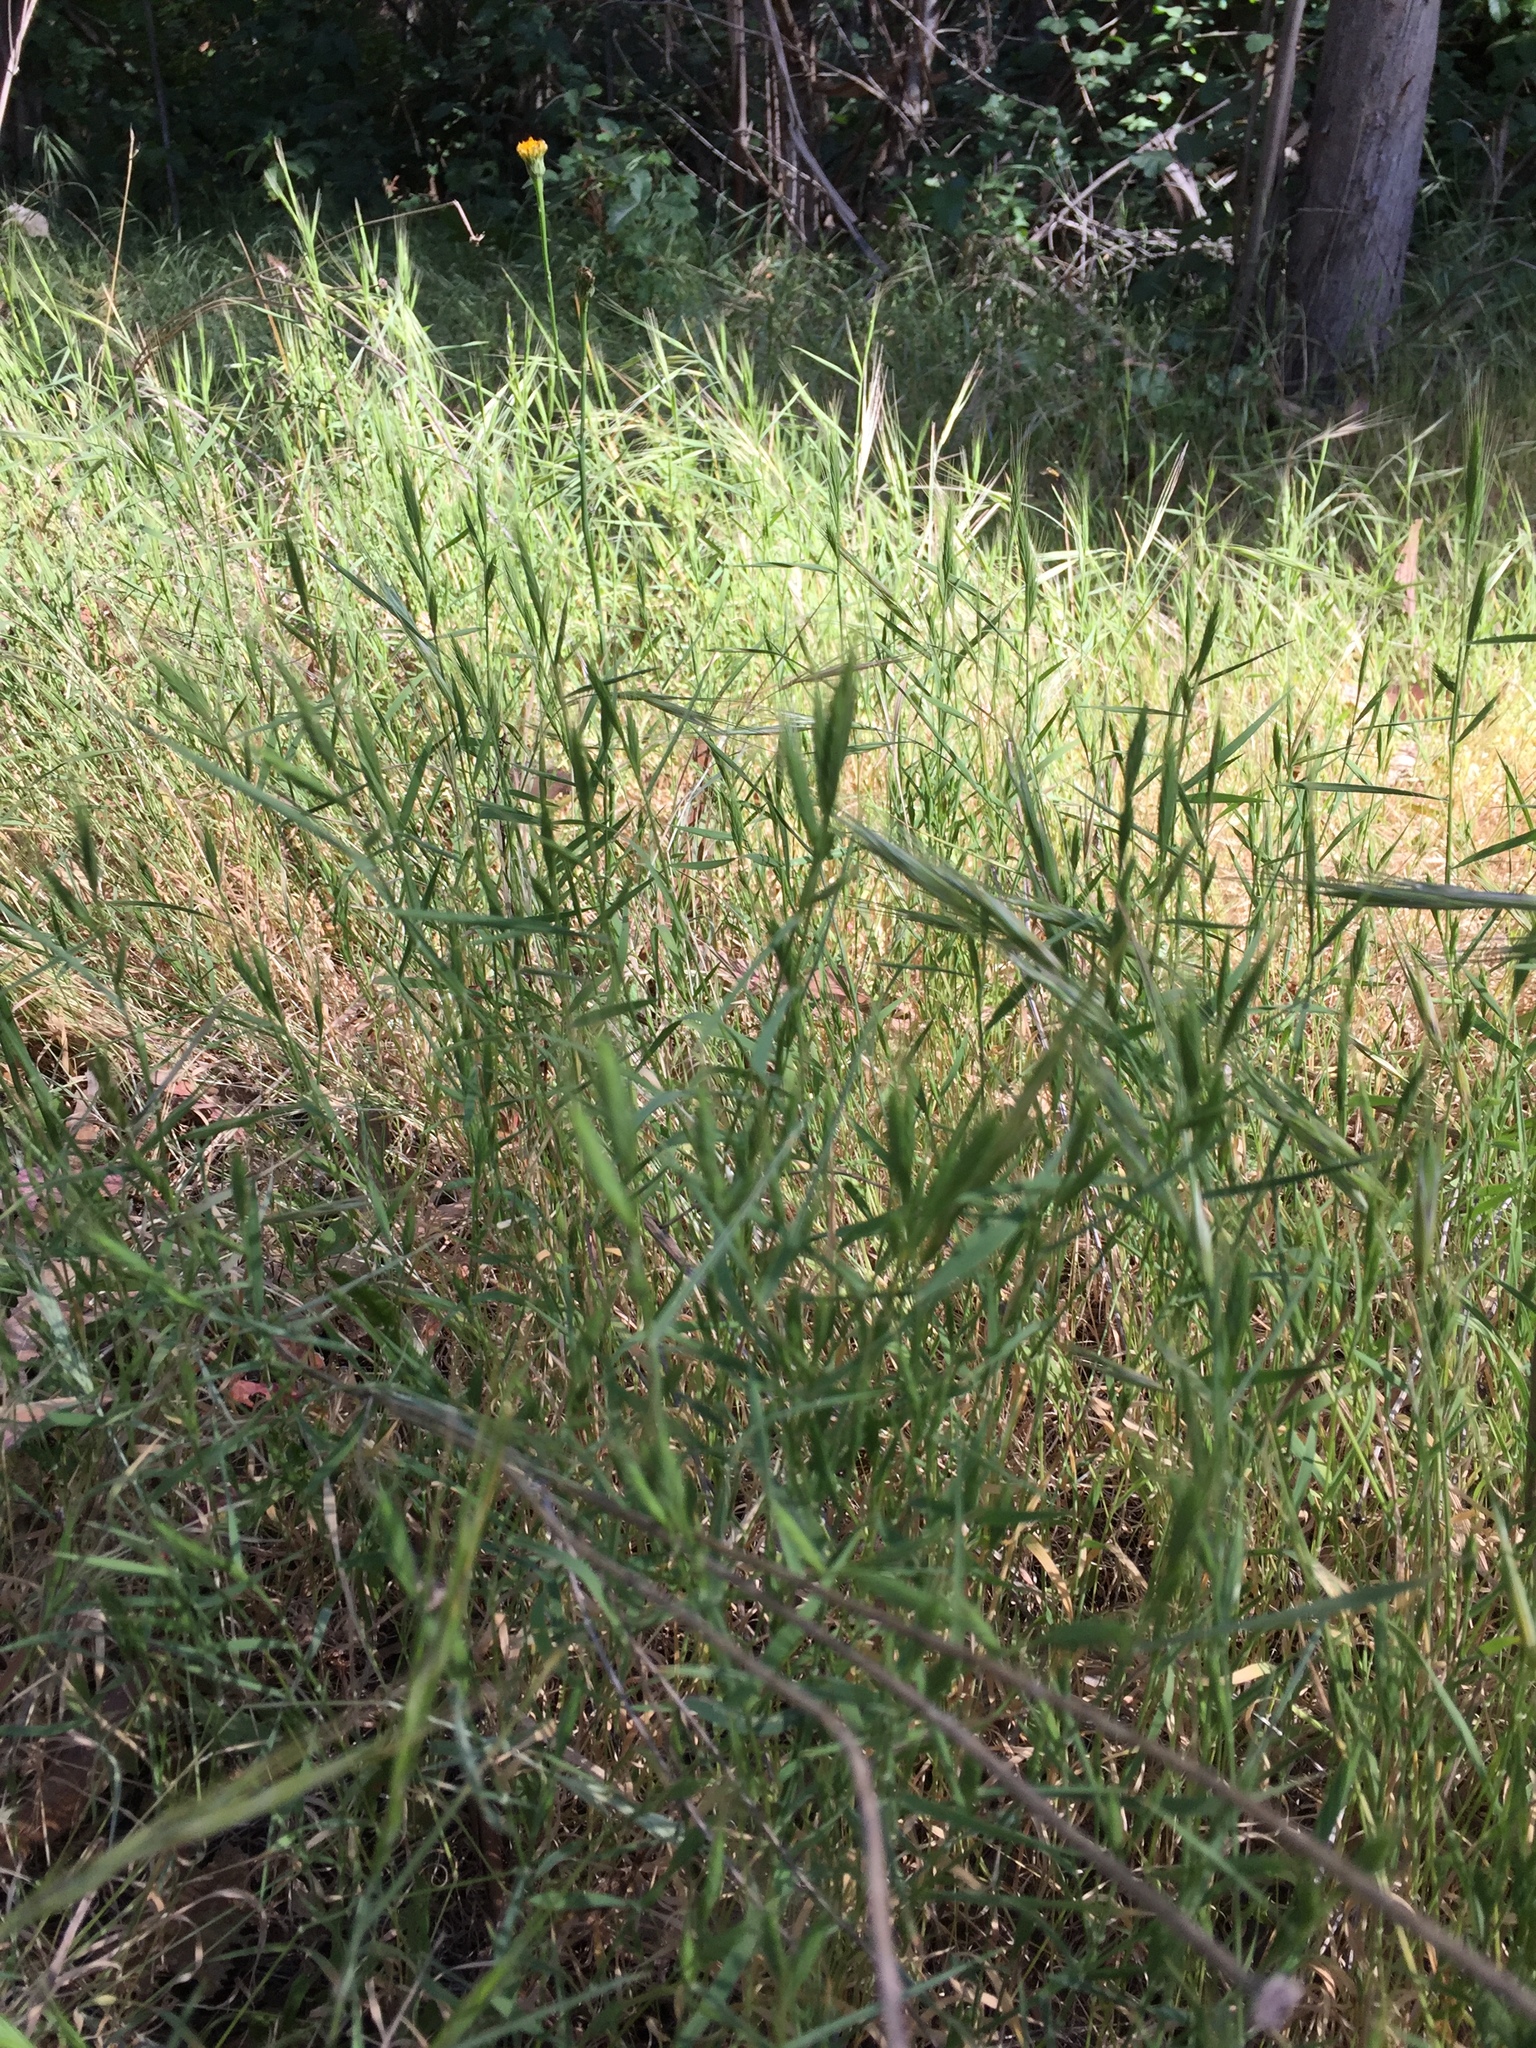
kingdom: Plantae
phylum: Tracheophyta
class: Liliopsida
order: Poales
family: Poaceae
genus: Brachypodium
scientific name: Brachypodium distachyon
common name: Stiff brome
